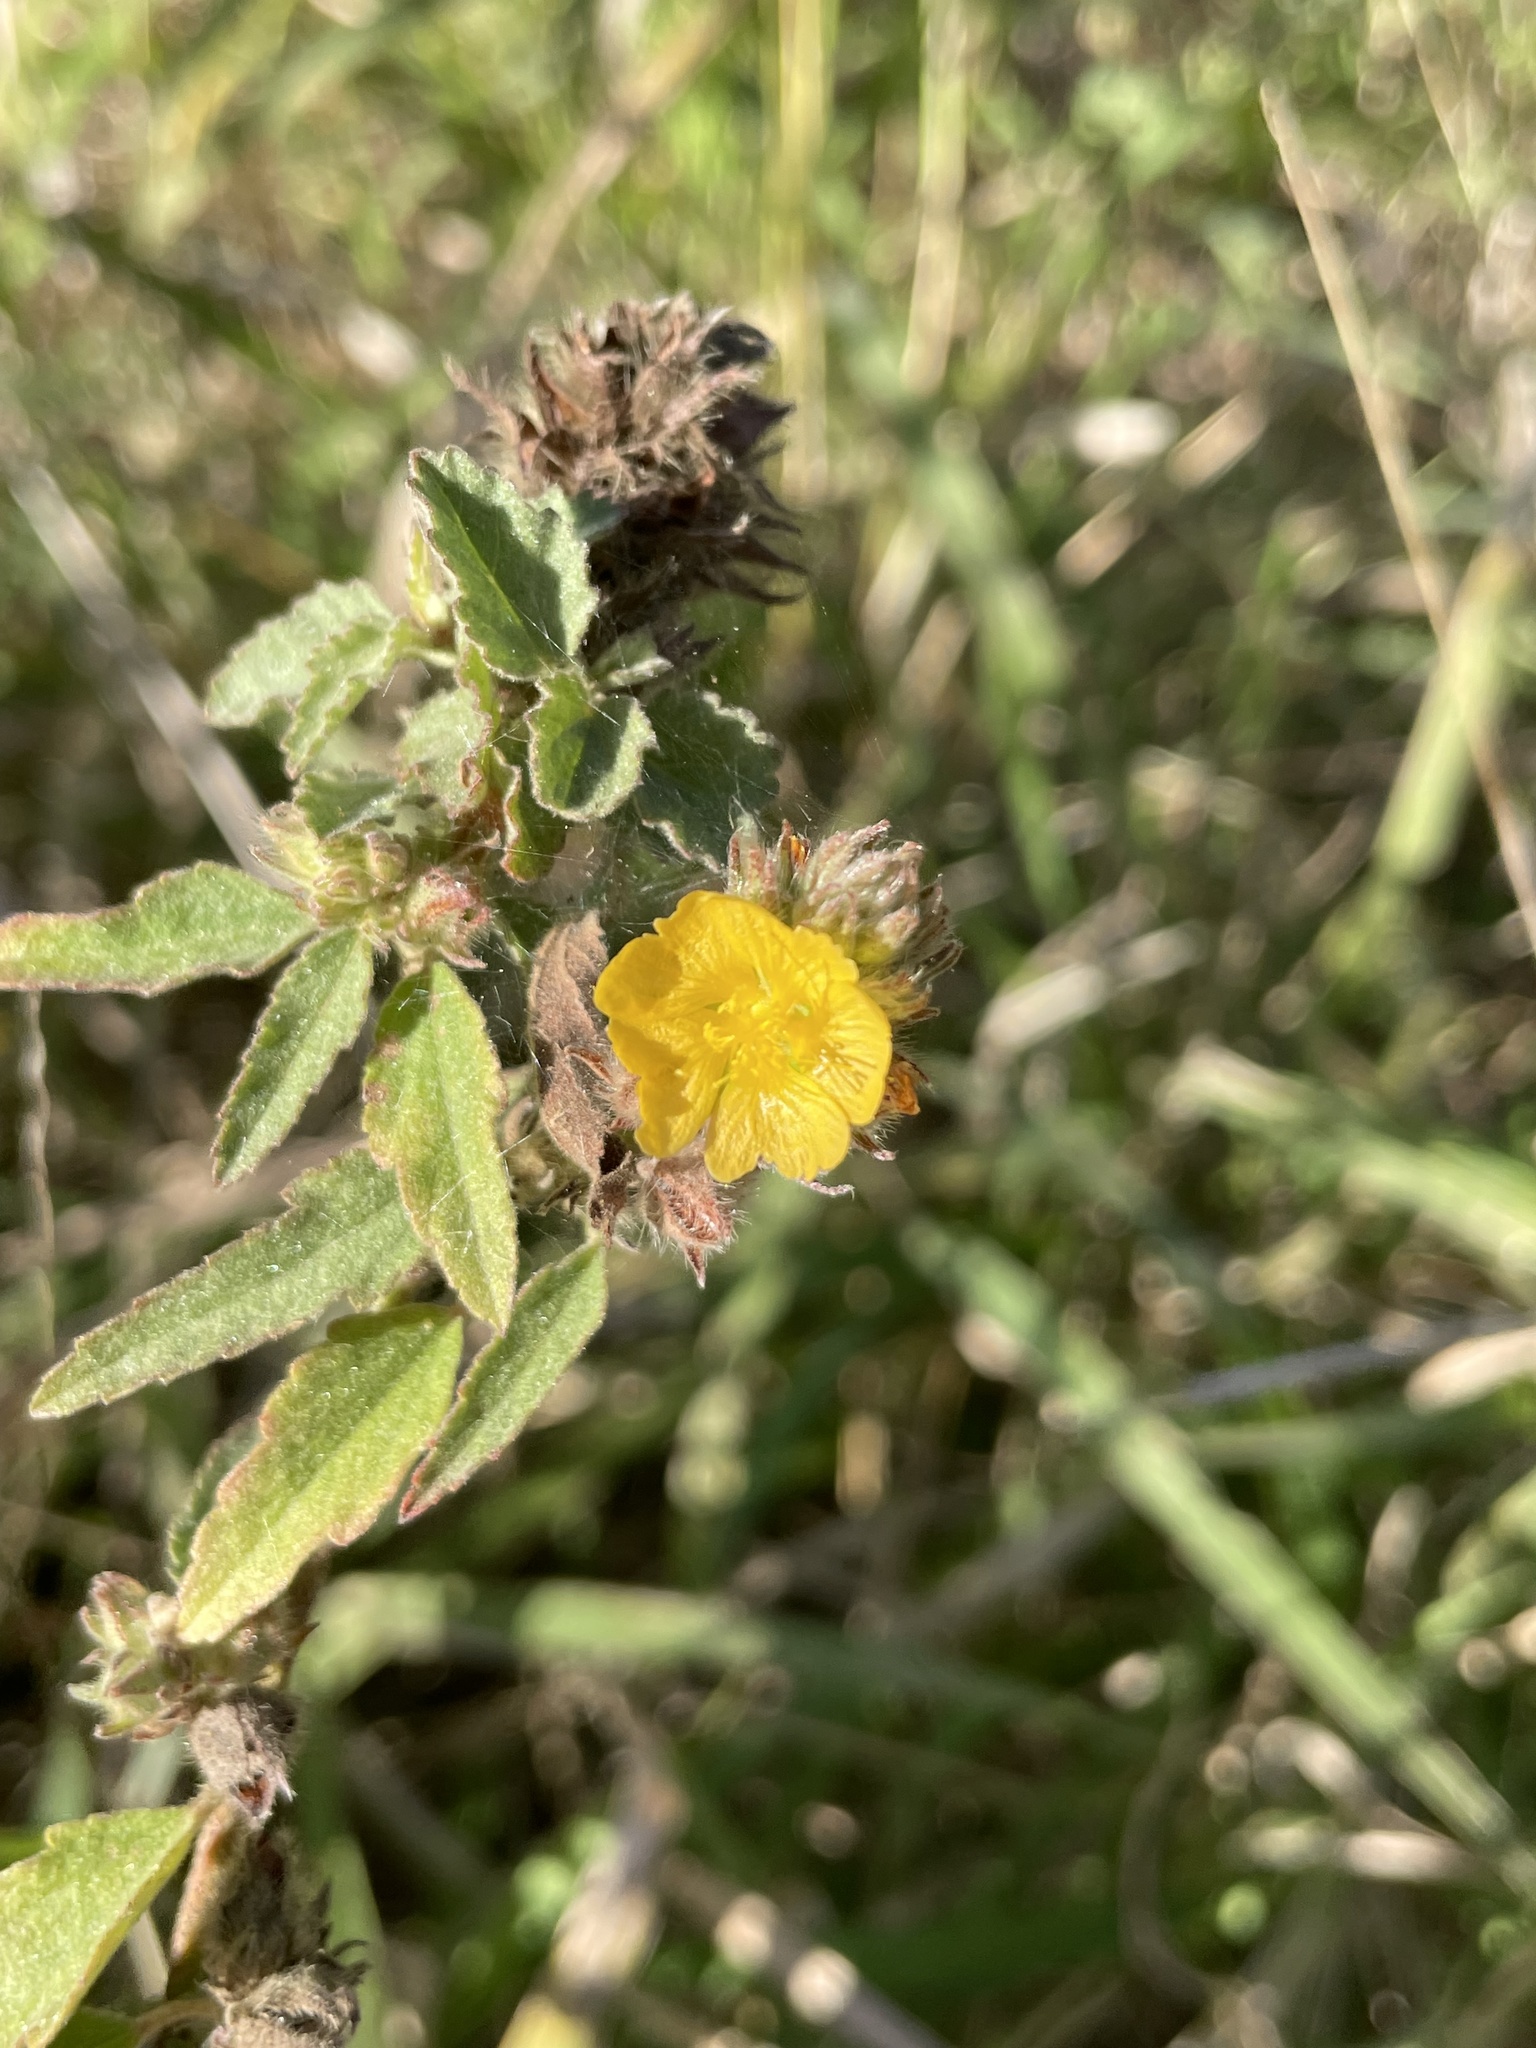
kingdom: Plantae
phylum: Tracheophyta
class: Magnoliopsida
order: Malvales
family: Malvaceae
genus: Malvastrum
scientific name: Malvastrum americanum
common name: Spiked malvastrum
